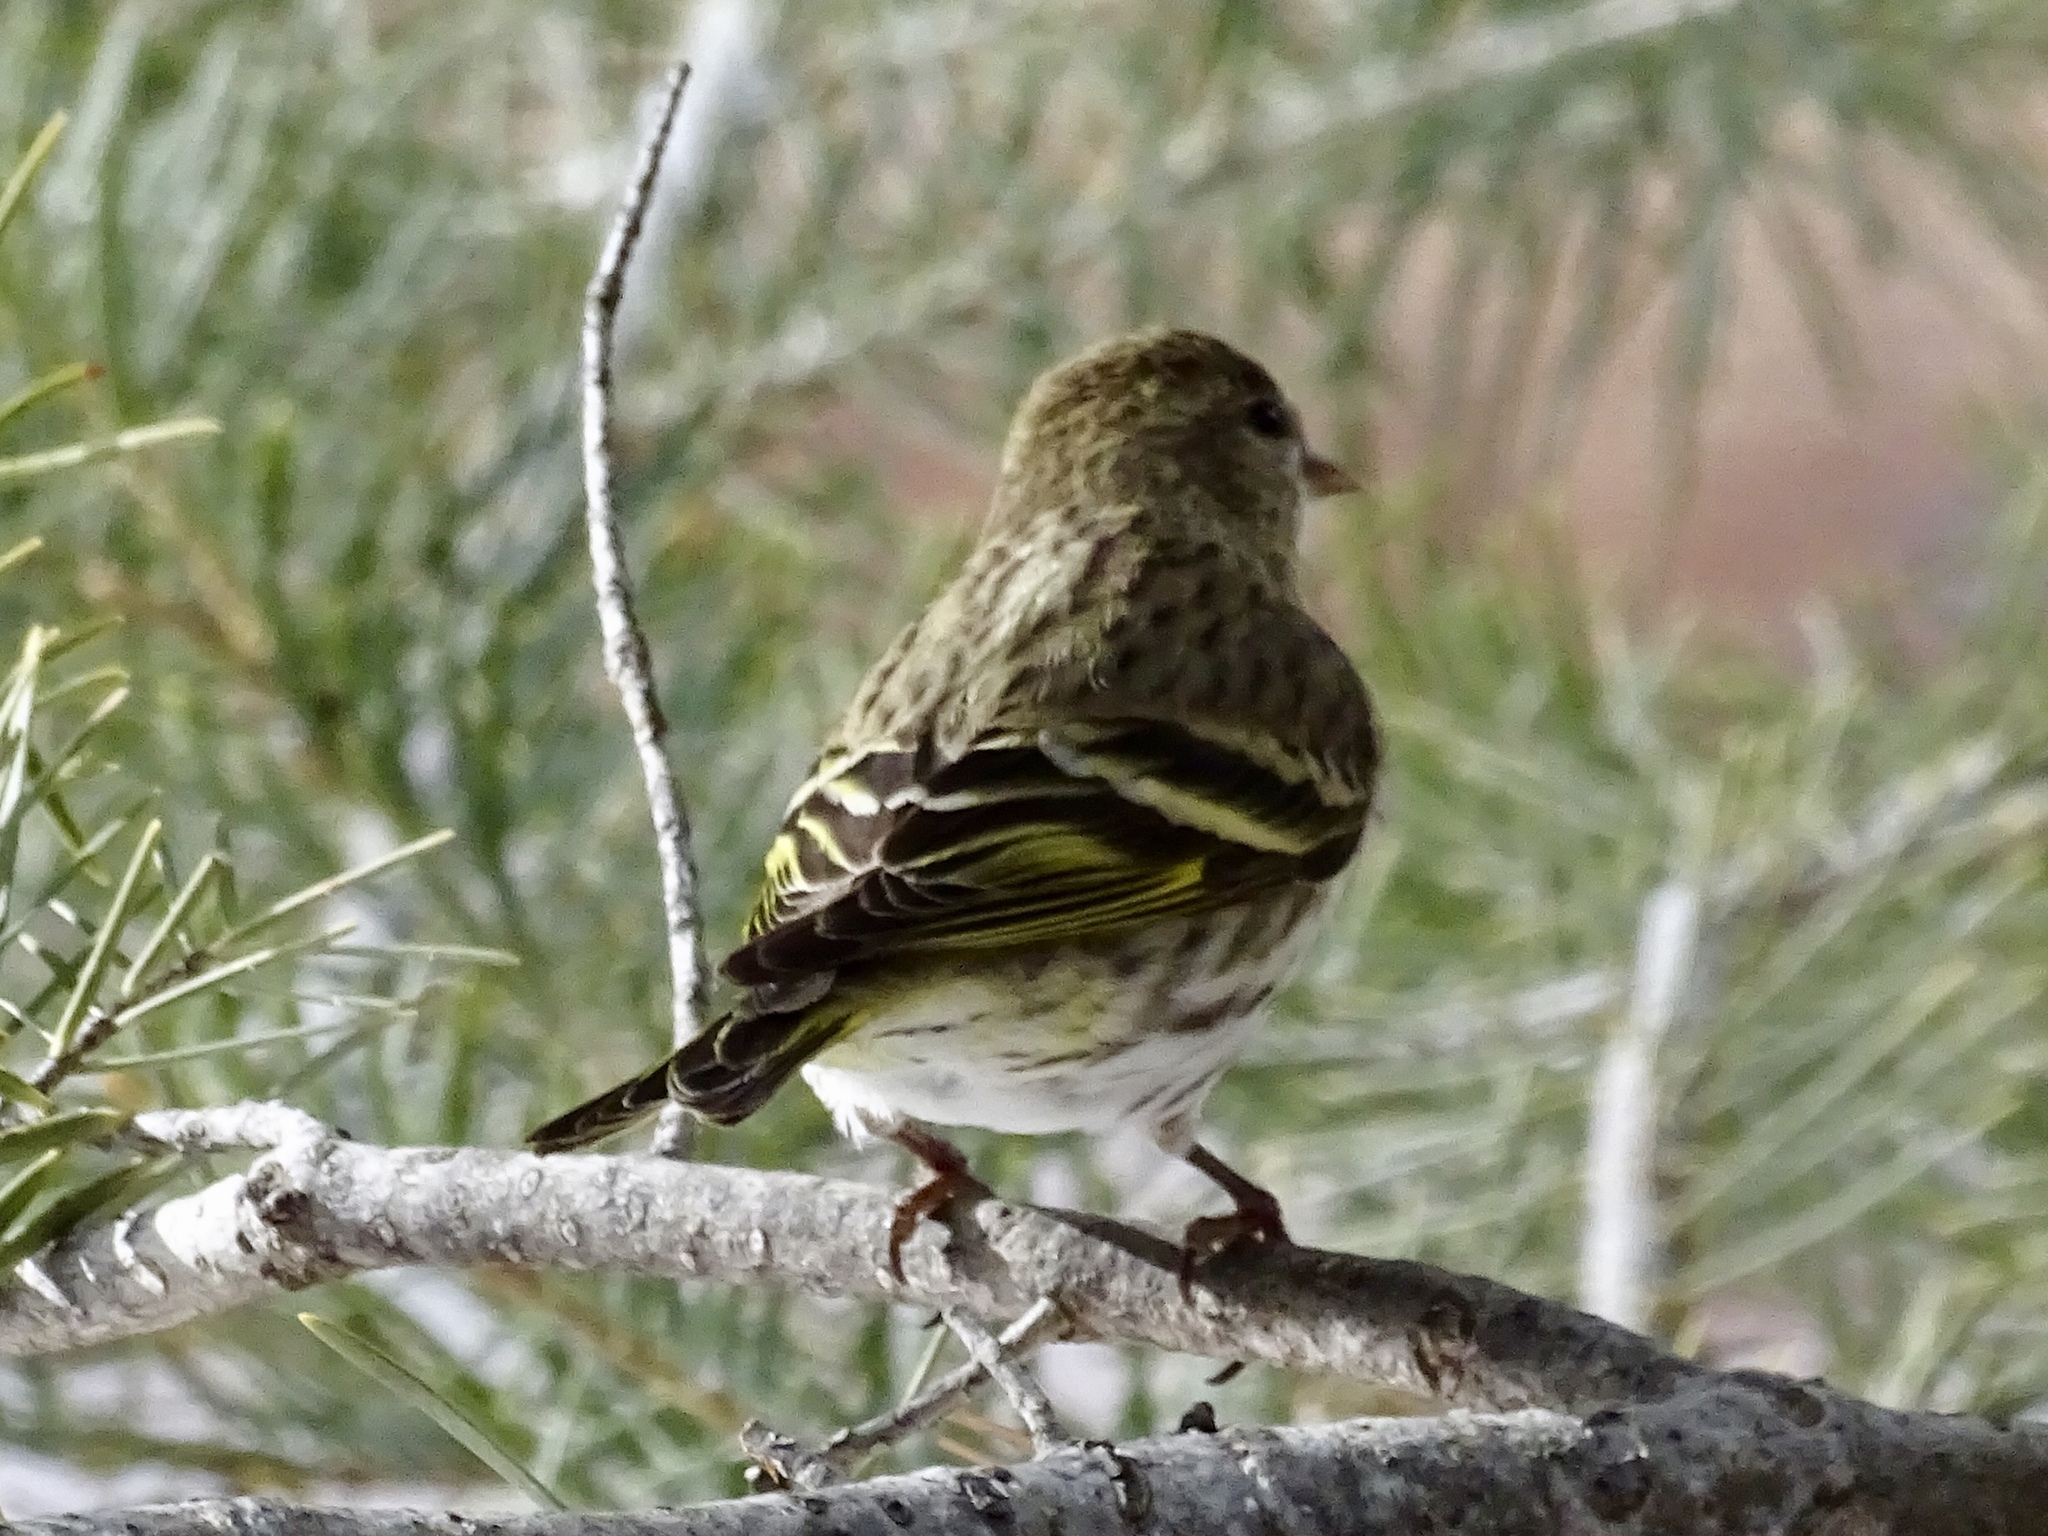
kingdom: Animalia
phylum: Chordata
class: Aves
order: Passeriformes
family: Fringillidae
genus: Spinus
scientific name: Spinus pinus
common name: Pine siskin
